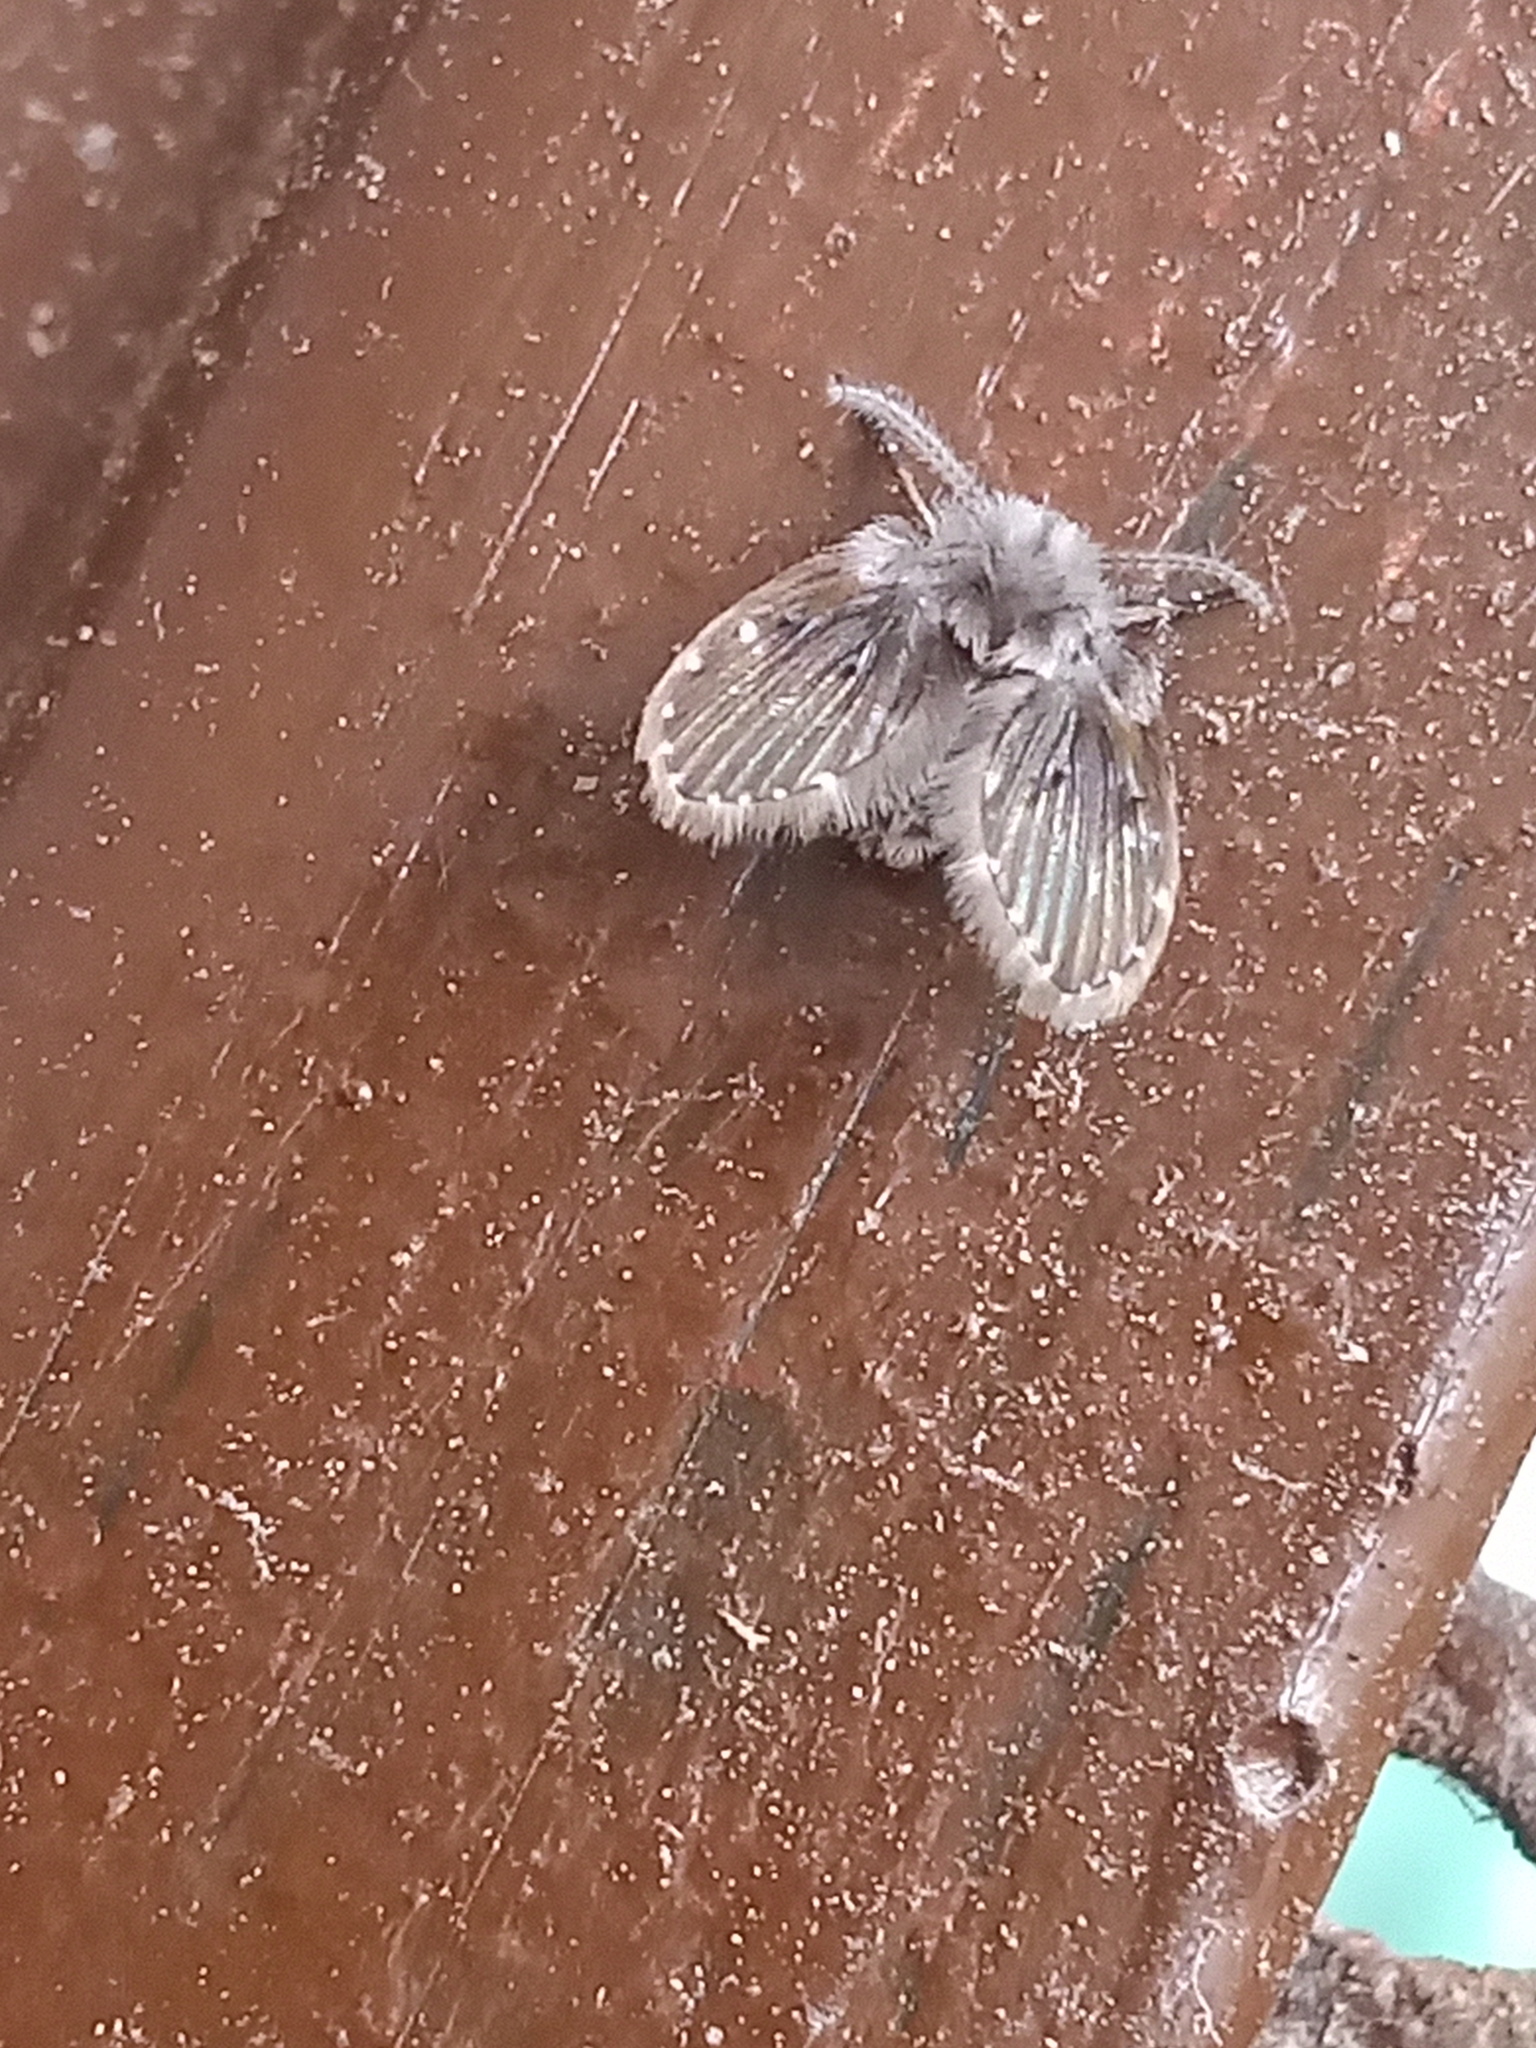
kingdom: Animalia
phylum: Arthropoda
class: Insecta
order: Diptera
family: Psychodidae
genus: Clogmia
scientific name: Clogmia albipunctatus
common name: White-spotted moth fly
